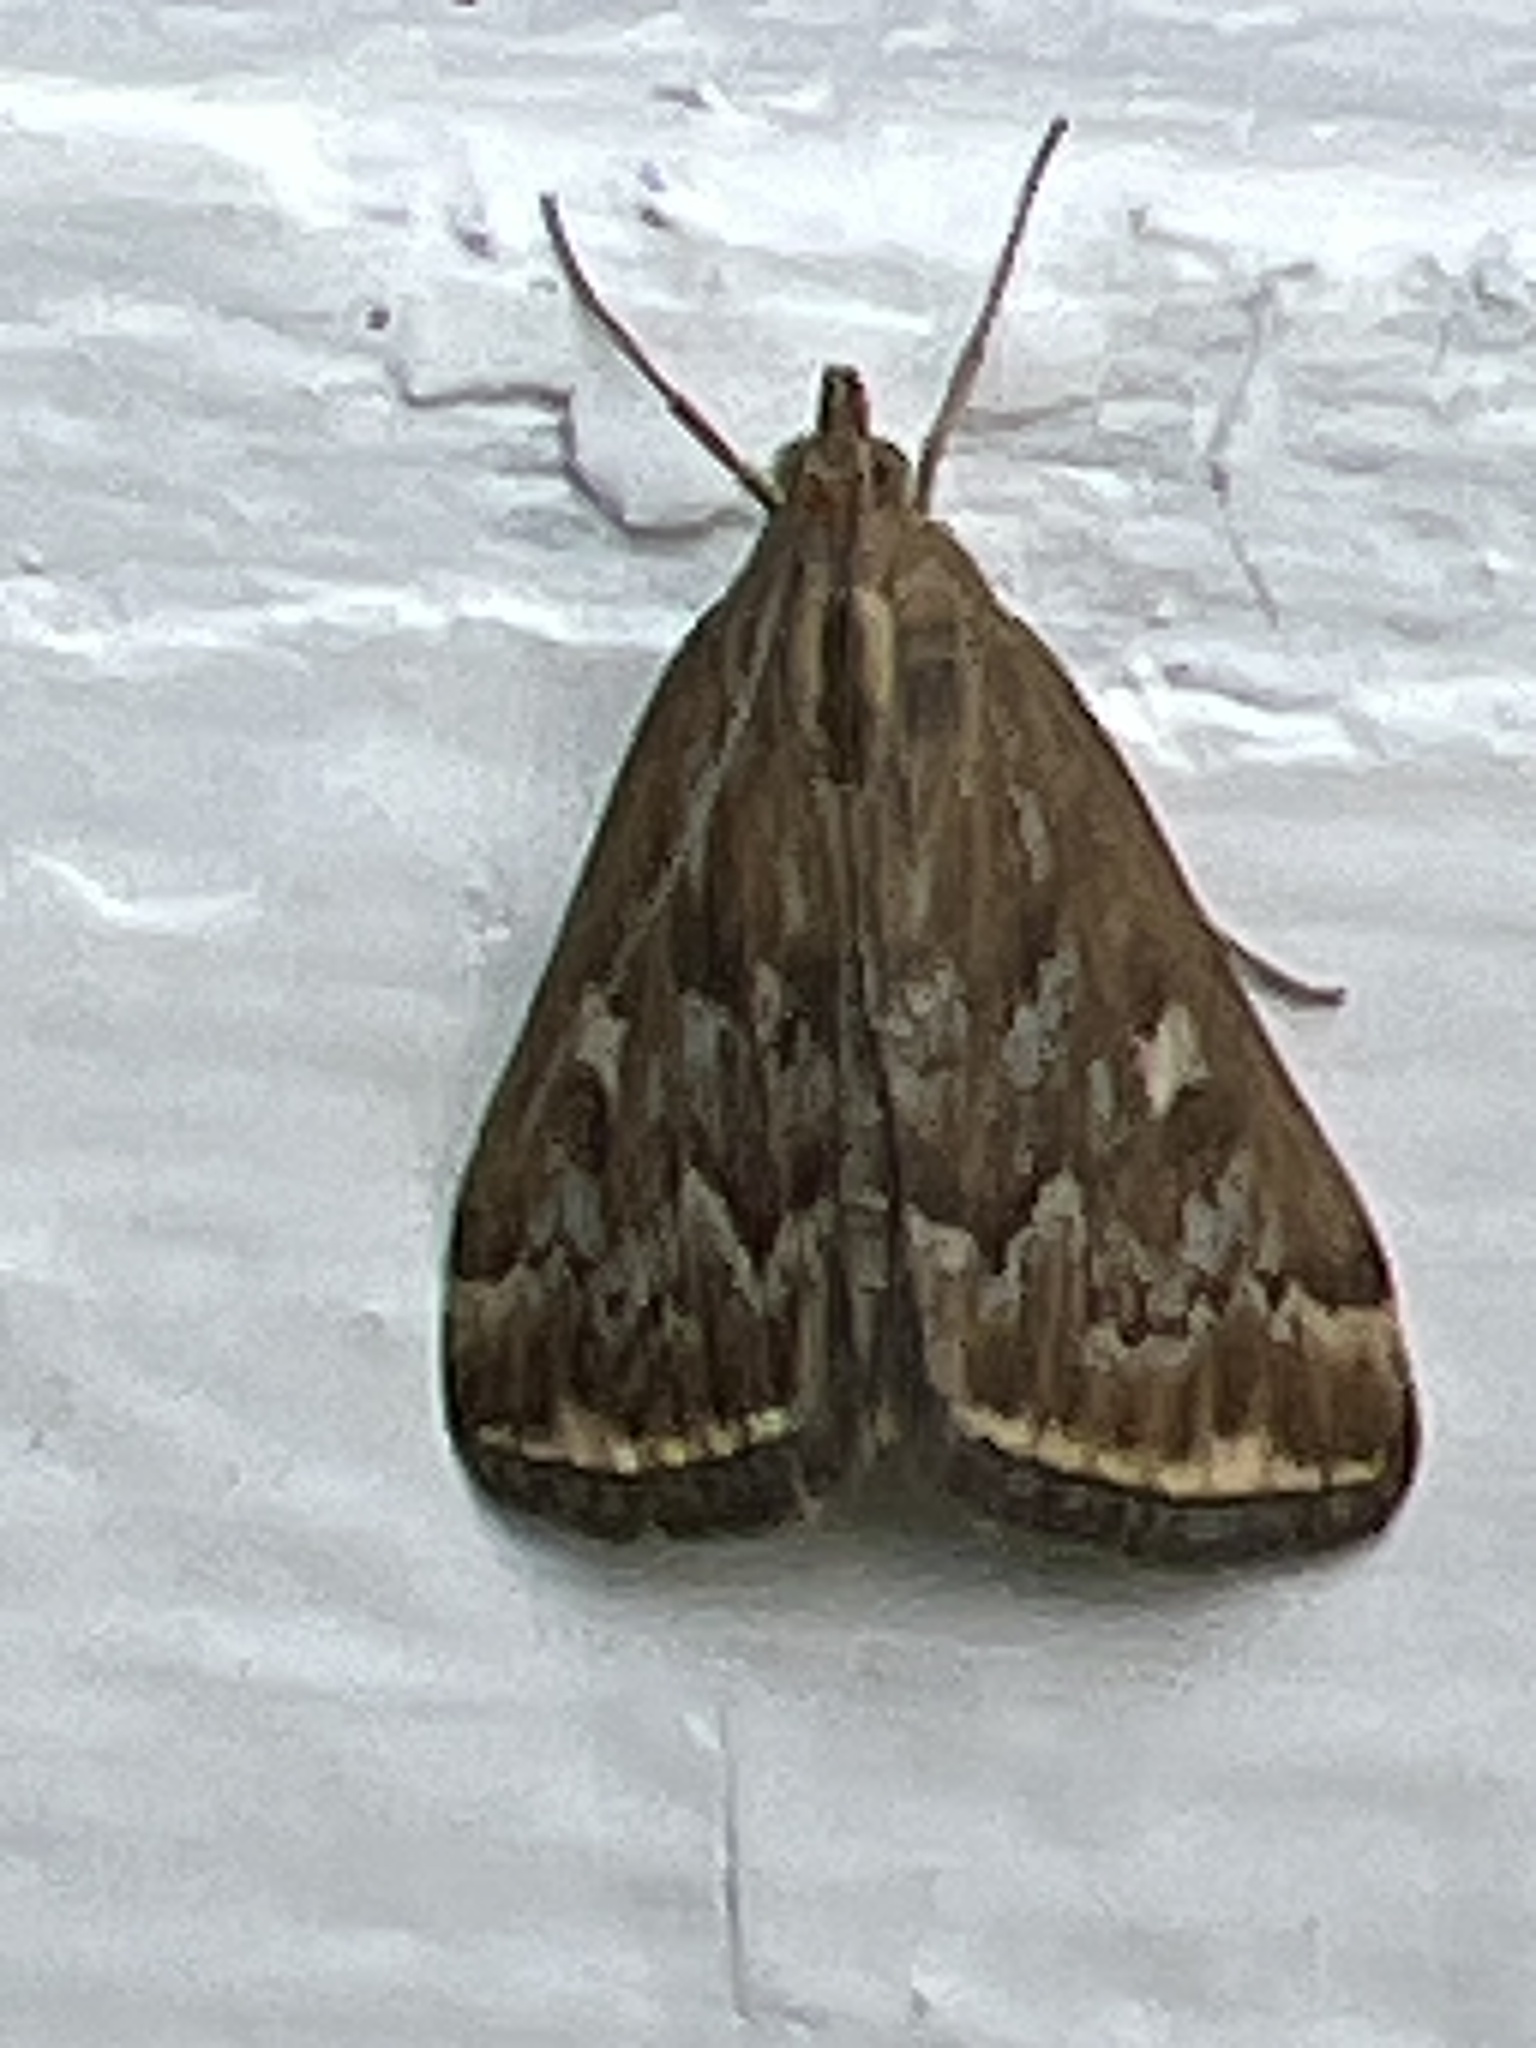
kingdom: Animalia
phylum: Arthropoda
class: Insecta
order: Lepidoptera
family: Crambidae
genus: Loxostege
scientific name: Loxostege
